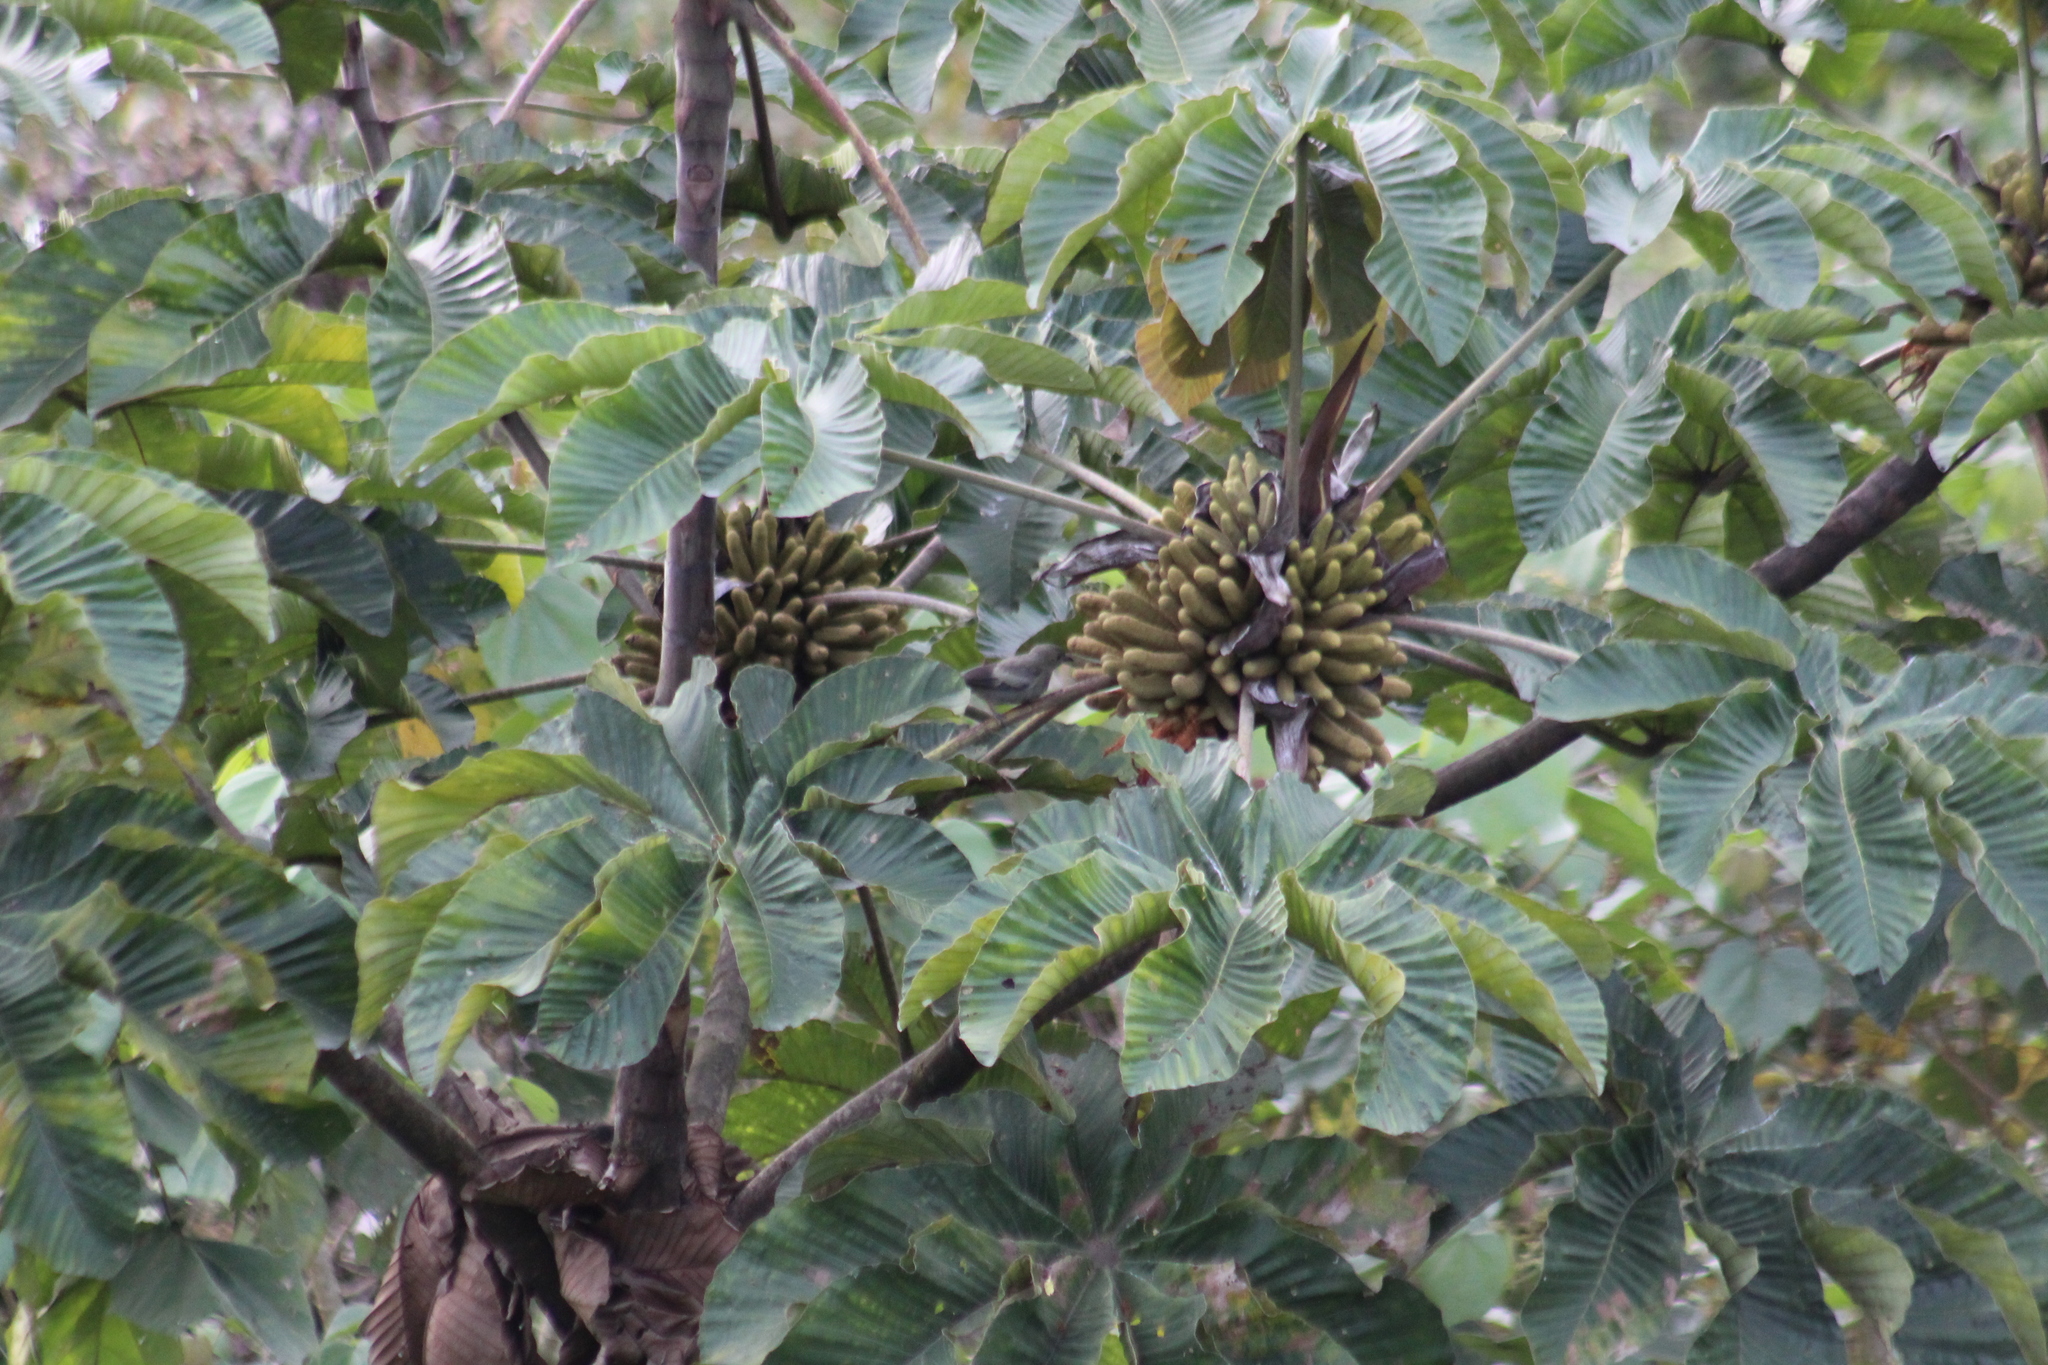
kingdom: Animalia
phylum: Chordata
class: Aves
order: Passeriformes
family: Thraupidae
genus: Thraupis
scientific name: Thraupis palmarum
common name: Palm tanager
